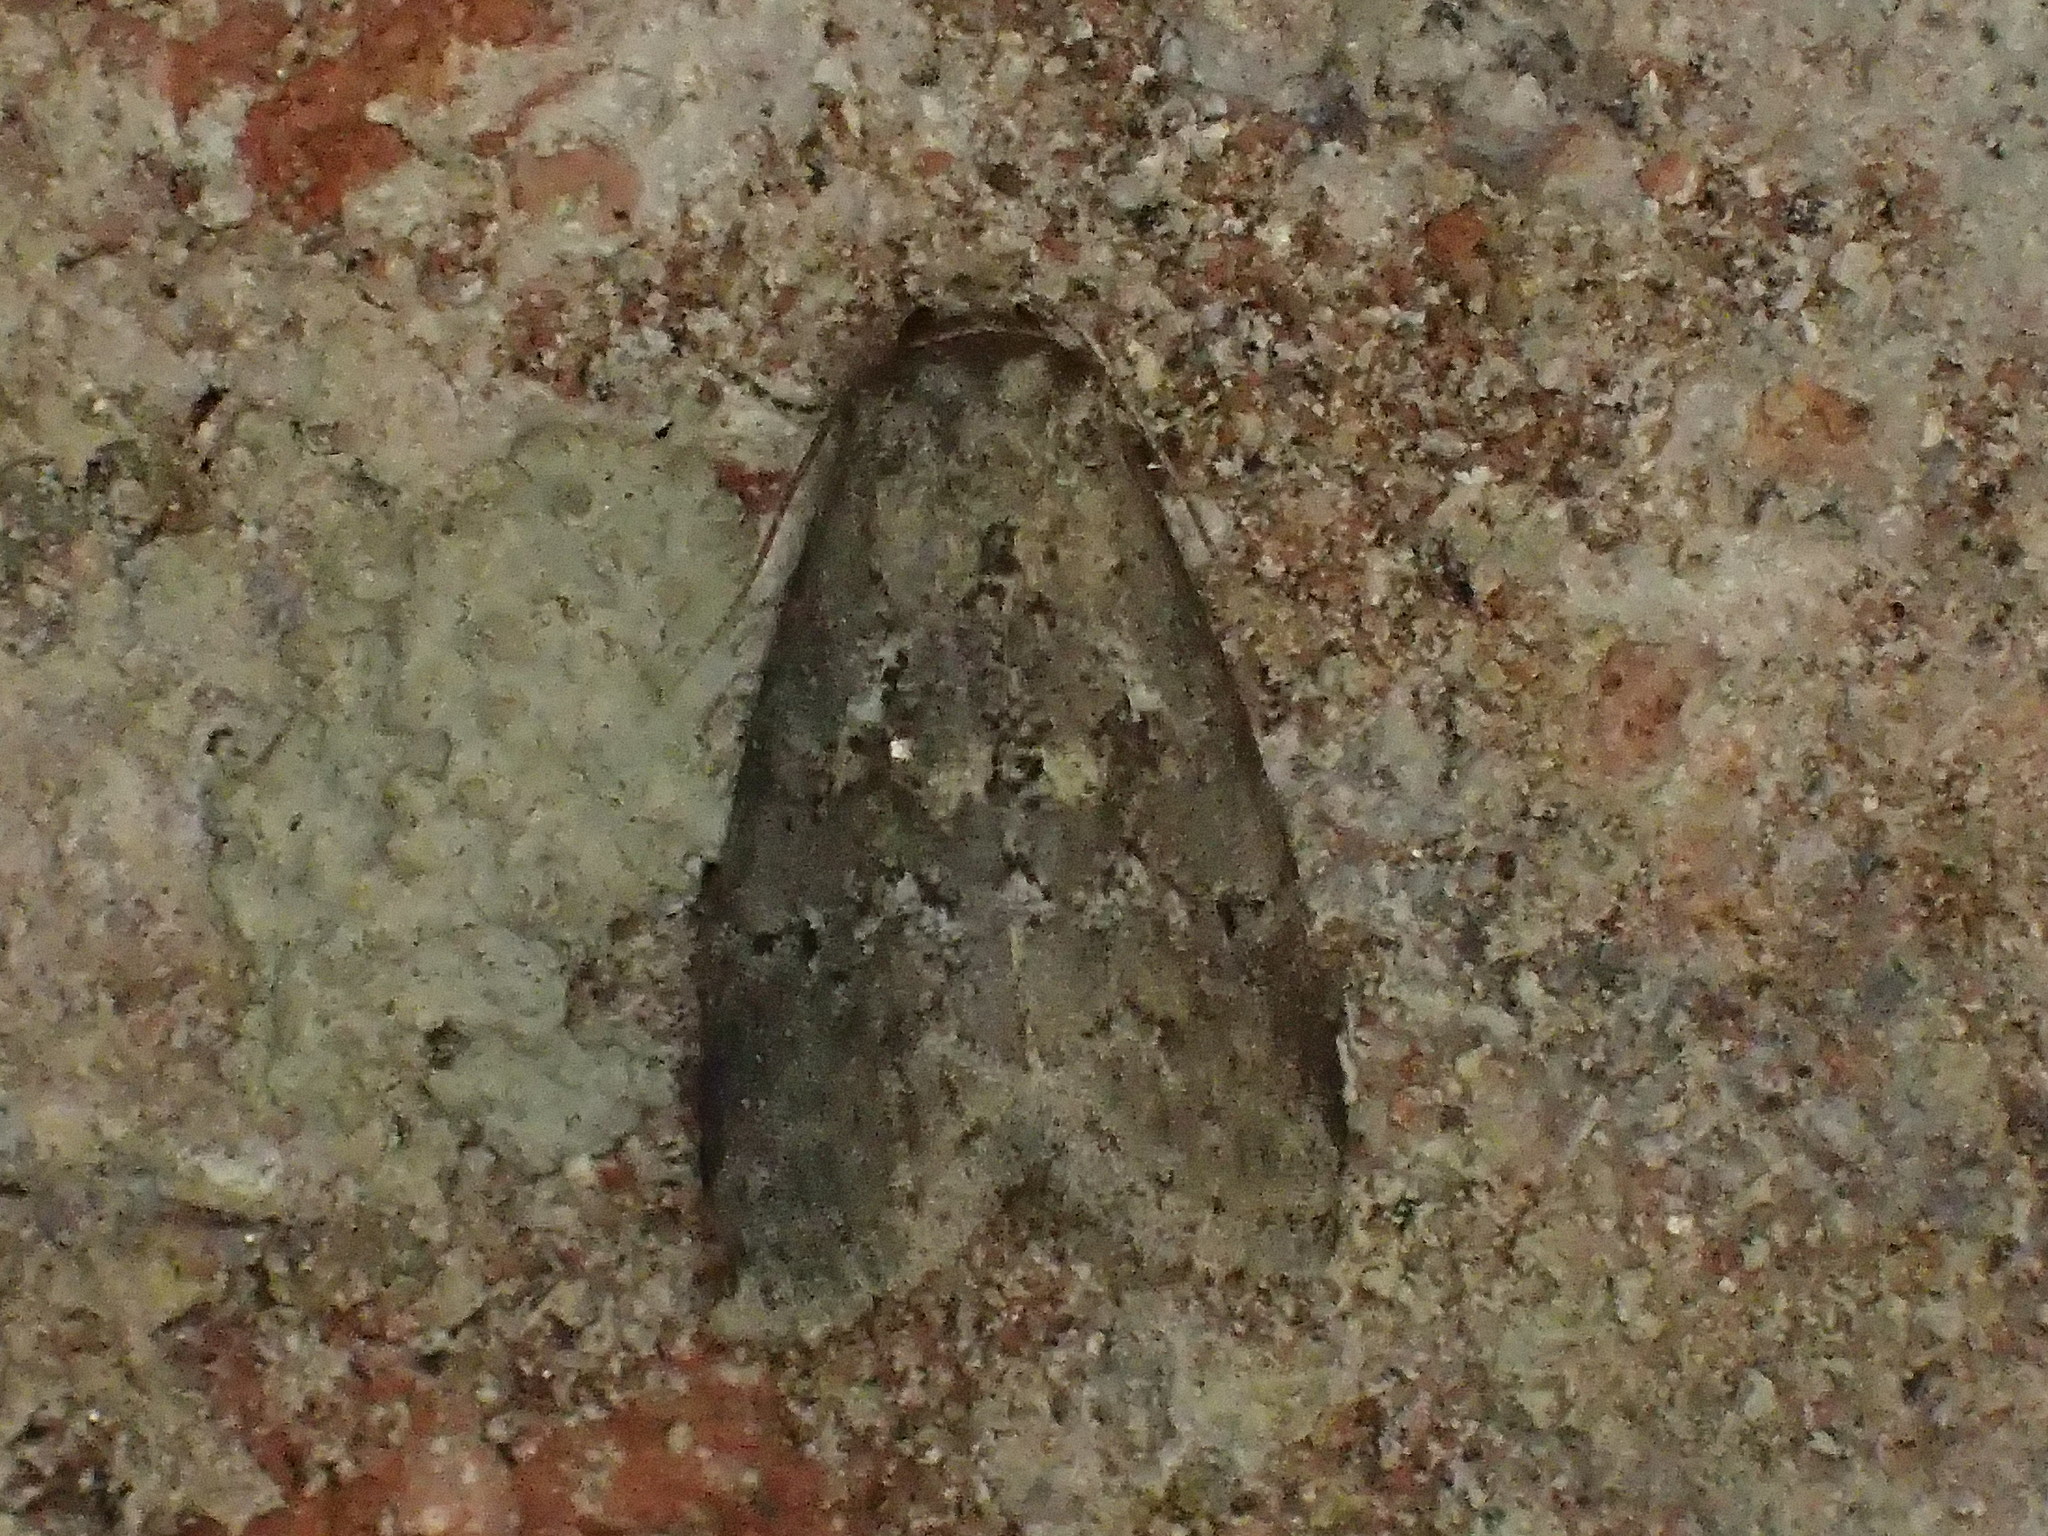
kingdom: Animalia
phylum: Arthropoda
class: Insecta
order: Lepidoptera
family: Erebidae
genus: Hyperstrotia
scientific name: Hyperstrotia nana
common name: White-lined graylet
